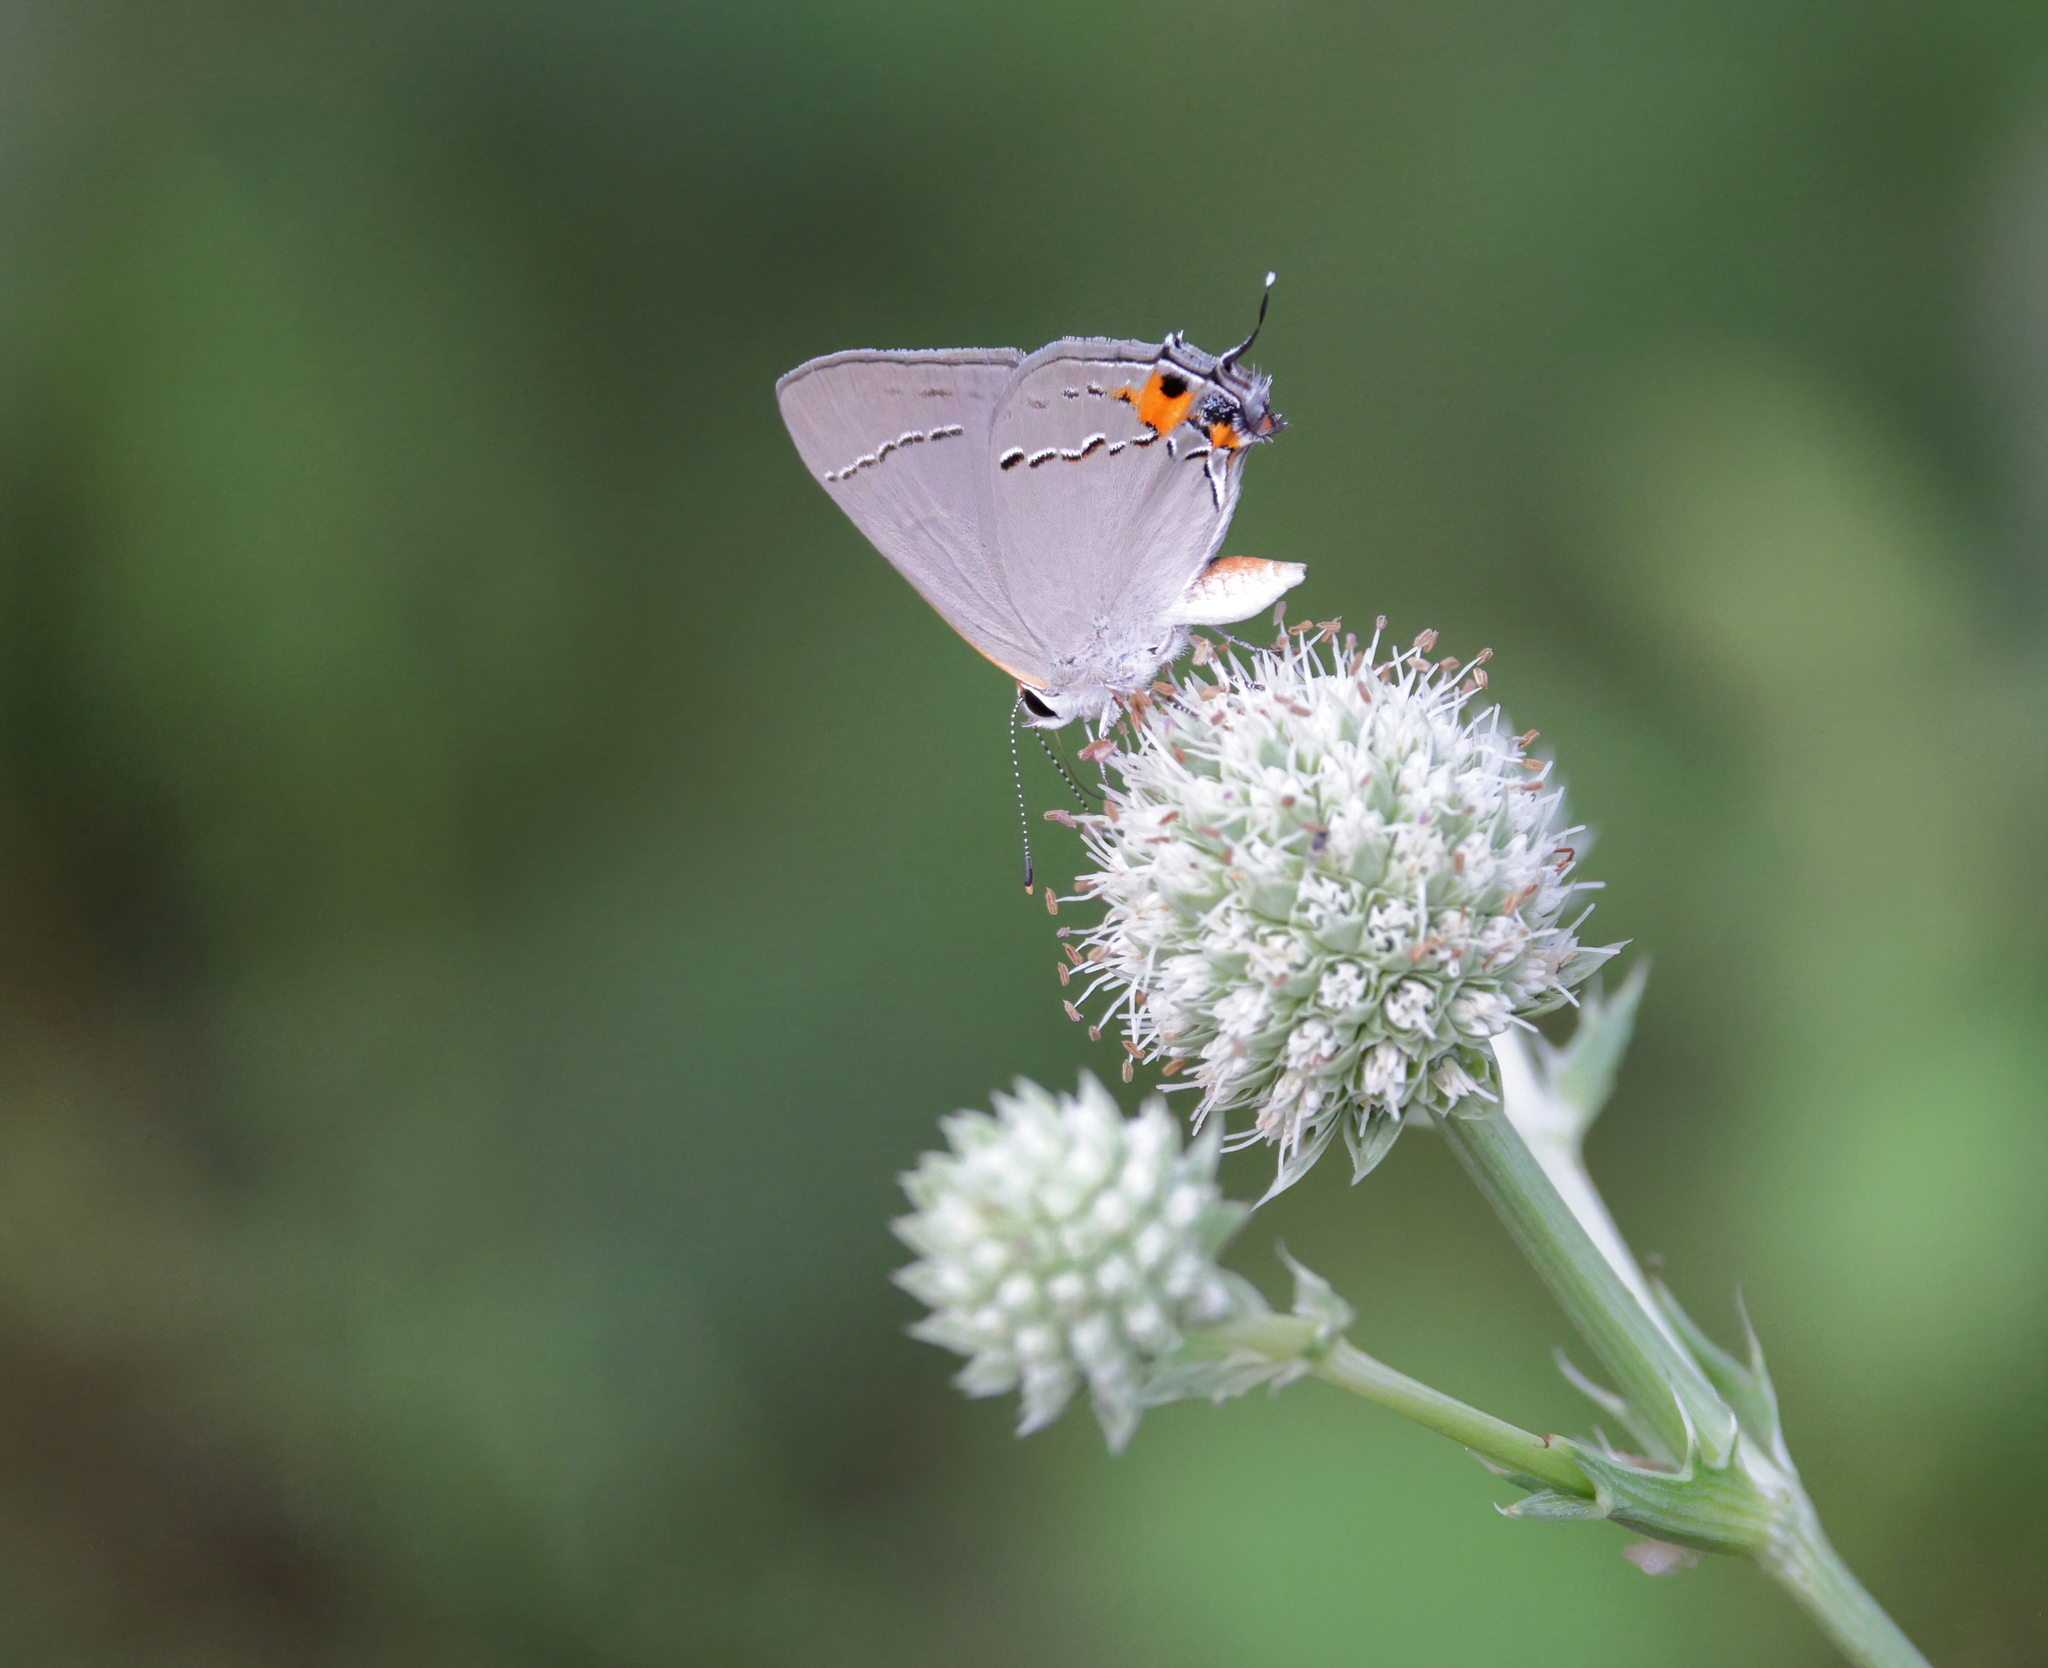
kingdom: Animalia
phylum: Arthropoda
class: Insecta
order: Lepidoptera
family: Lycaenidae
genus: Strymon
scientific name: Strymon melinus
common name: Gray hairstreak
